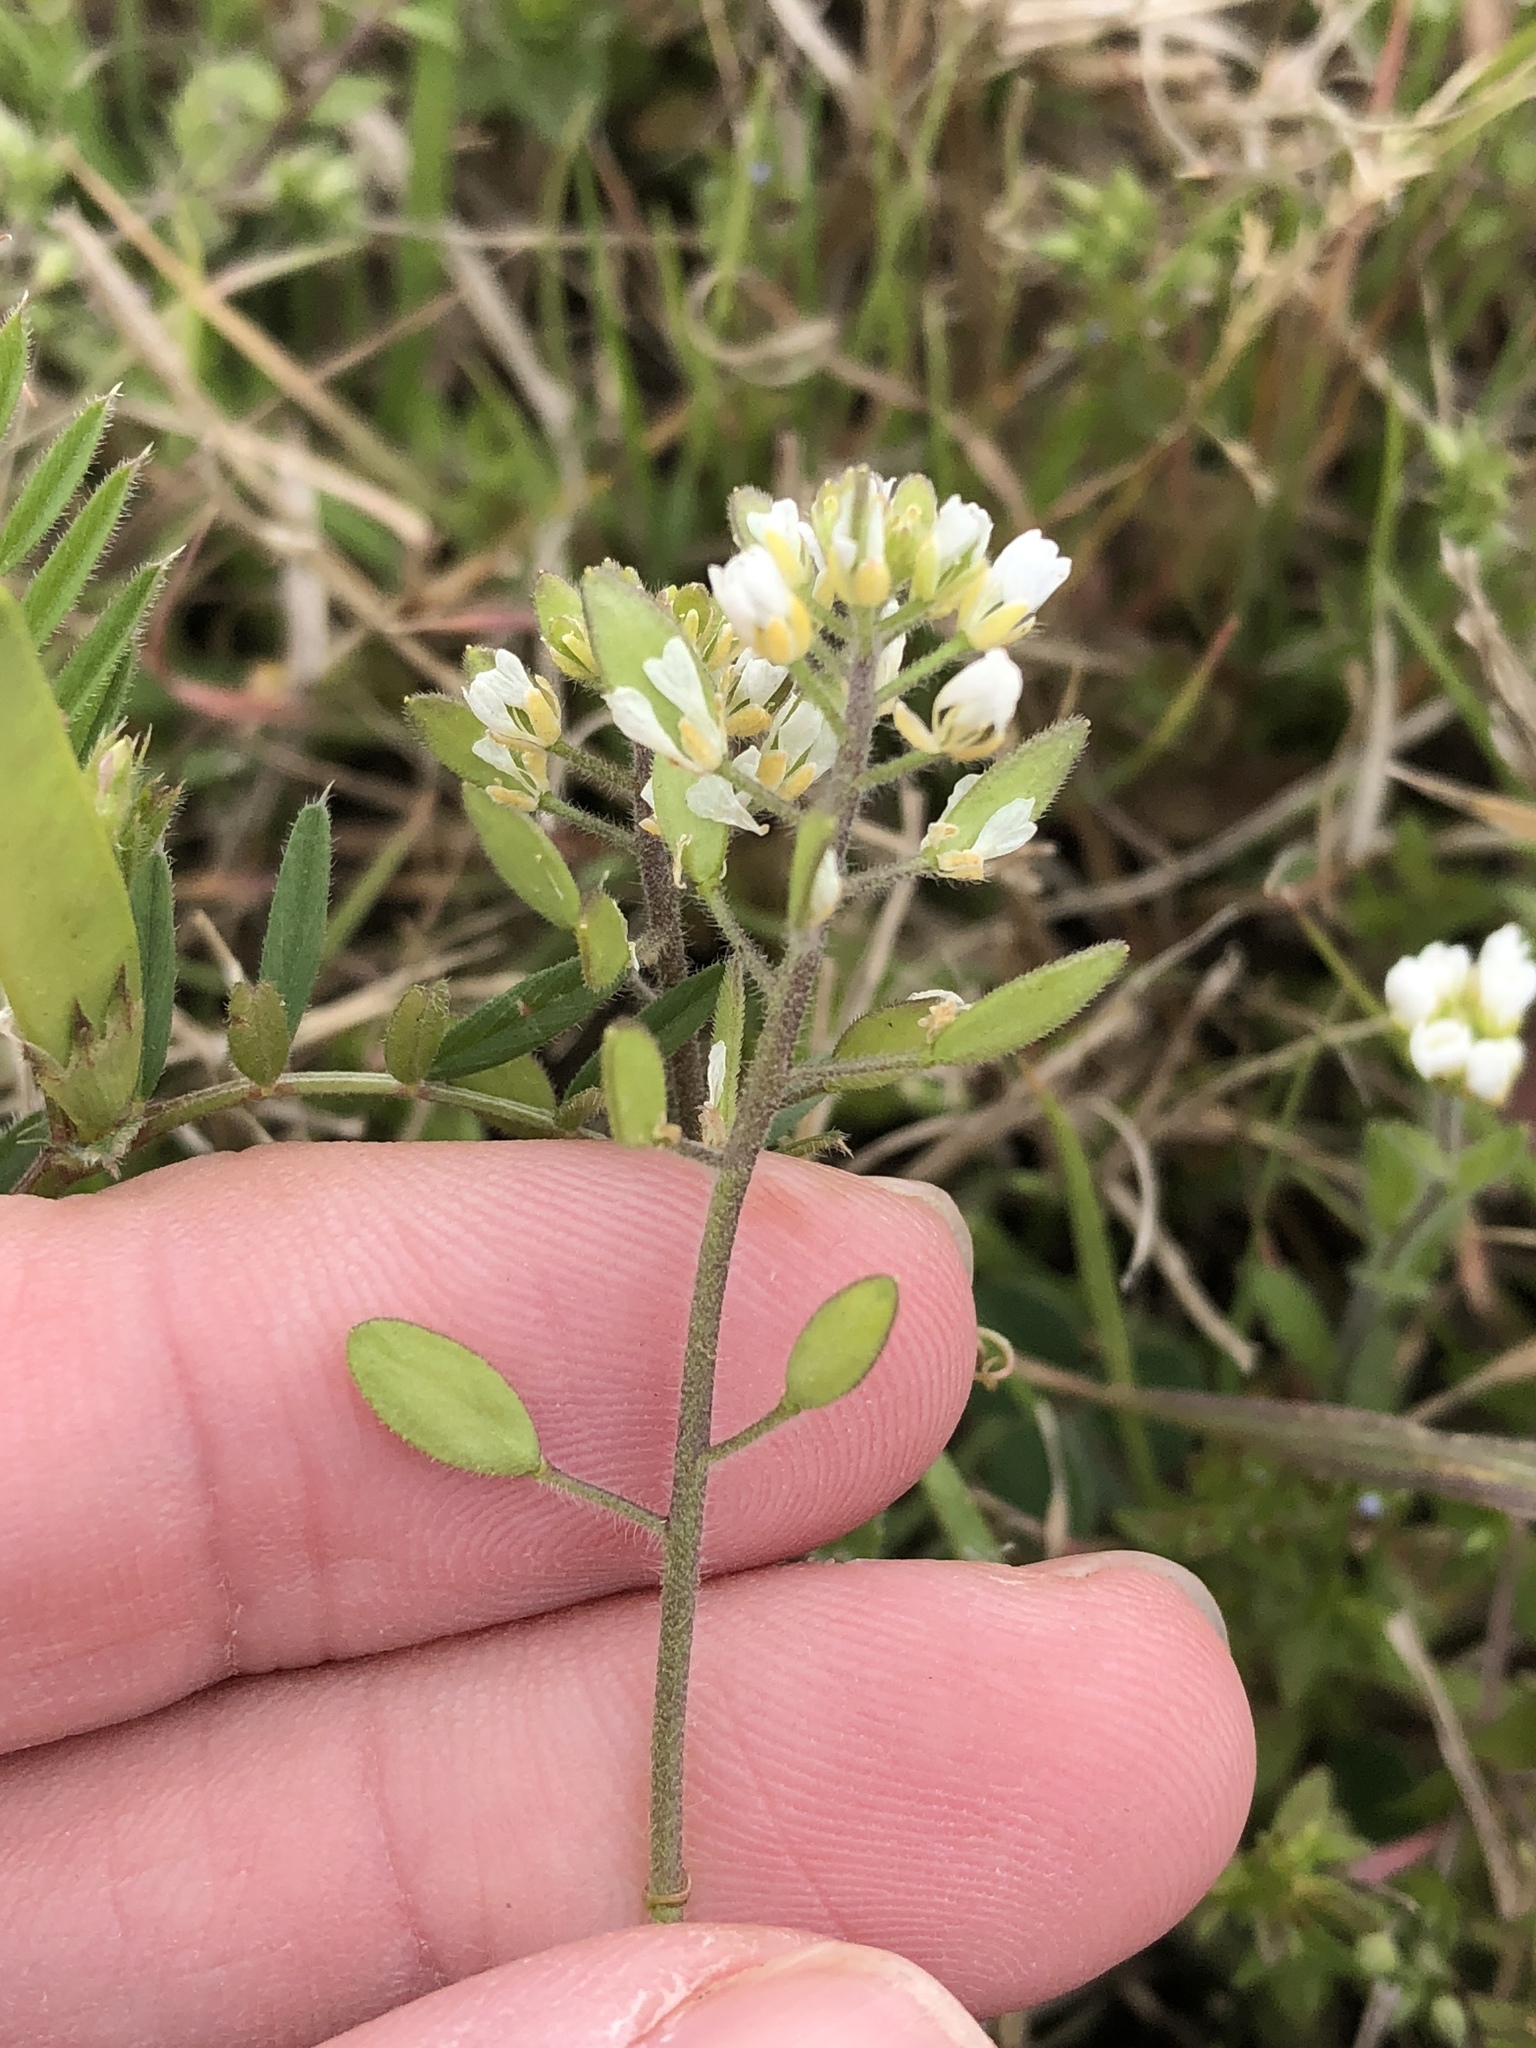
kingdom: Plantae
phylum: Tracheophyta
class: Magnoliopsida
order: Brassicales
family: Brassicaceae
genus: Tomostima
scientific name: Tomostima platycarpa
